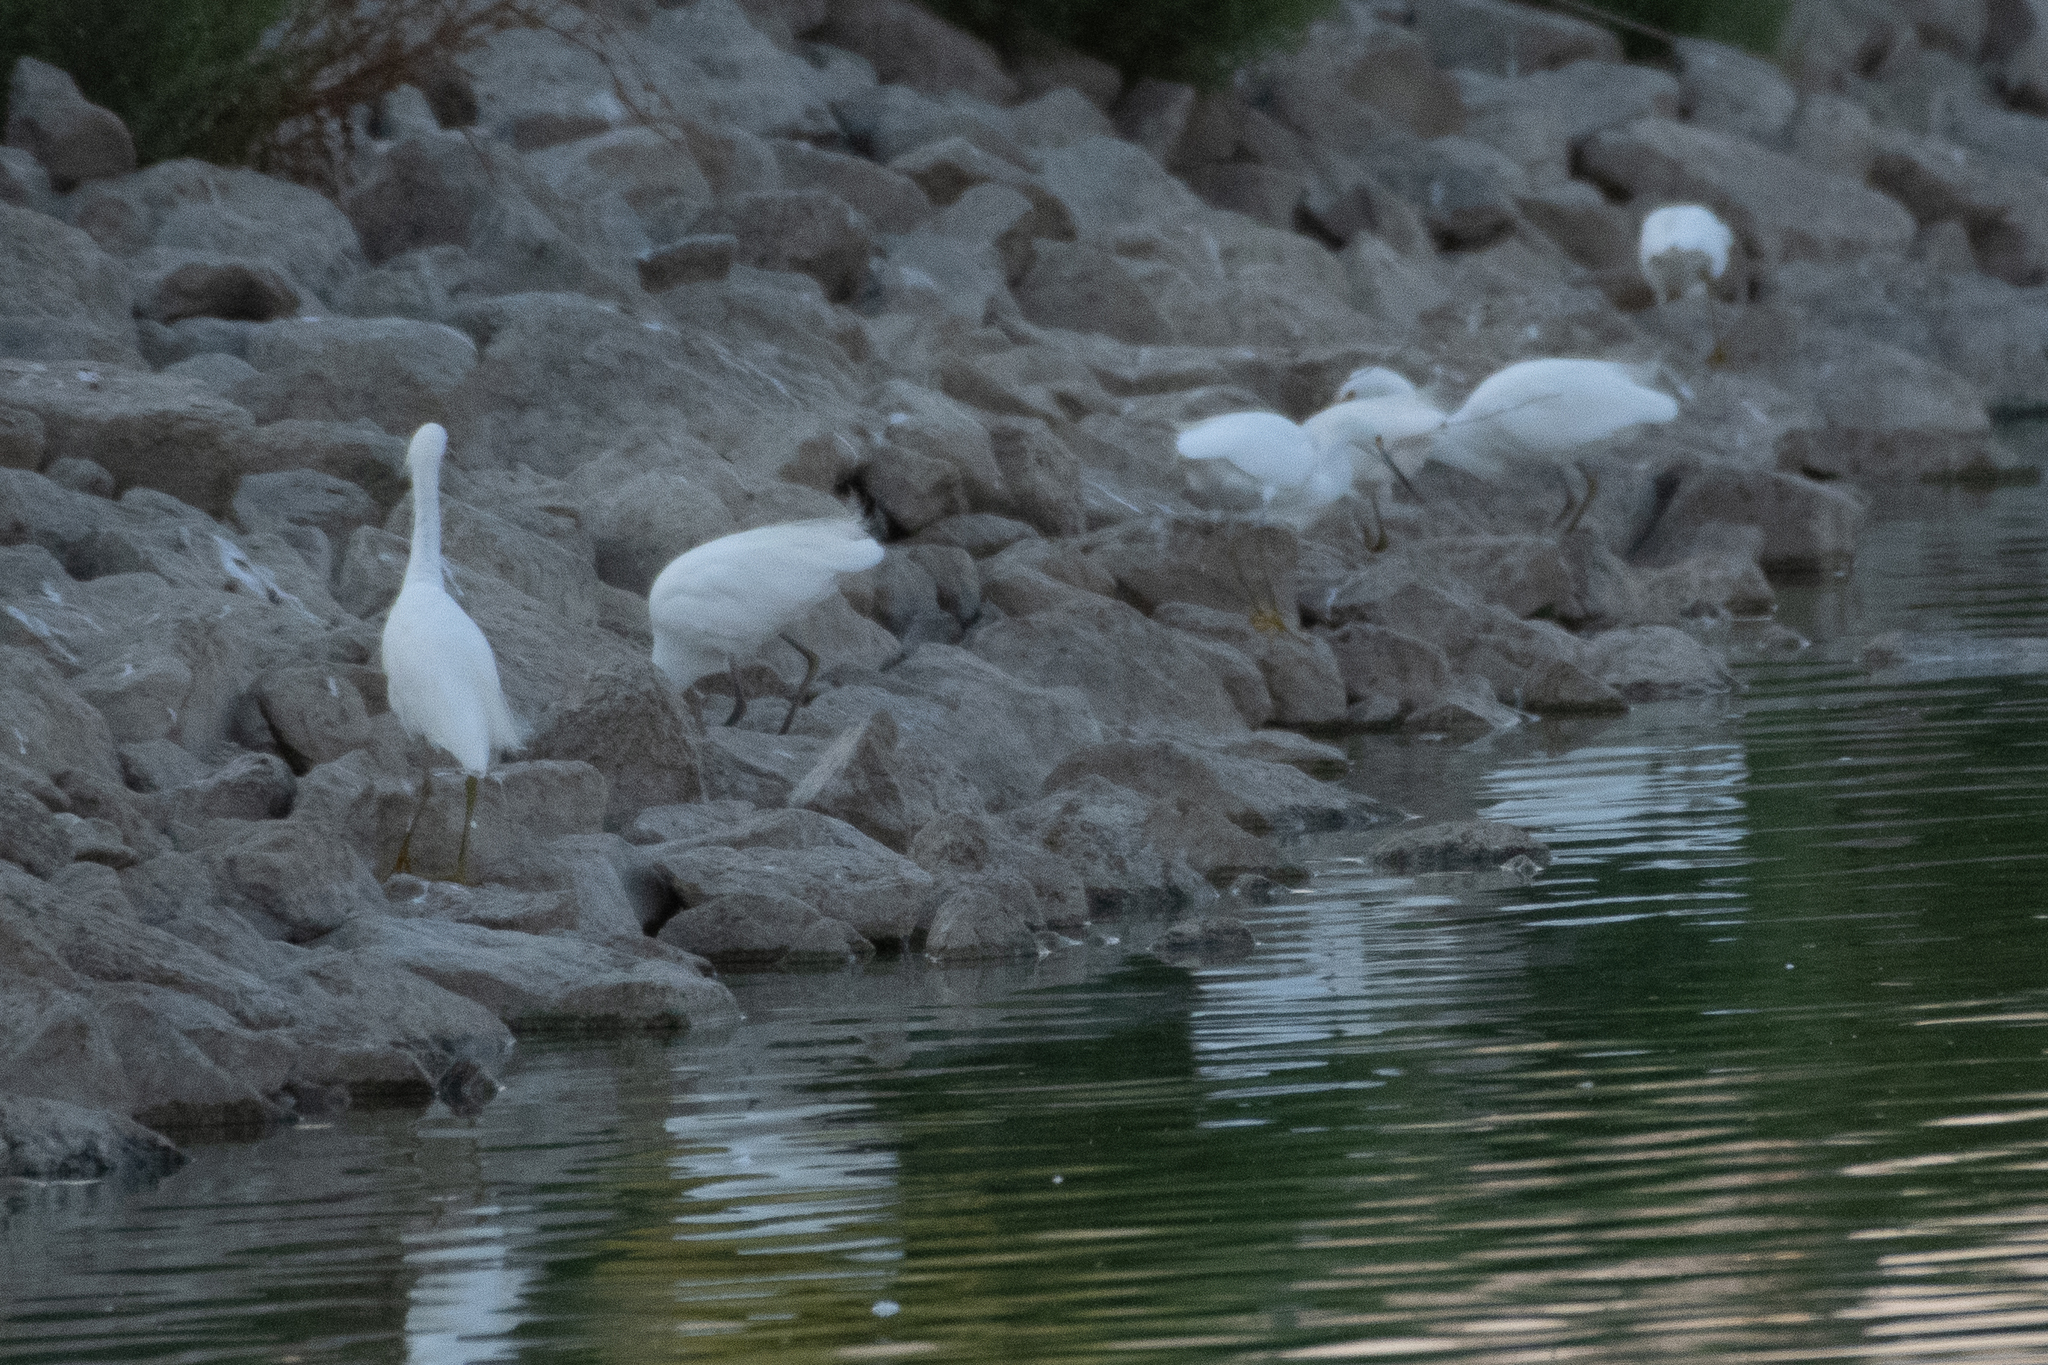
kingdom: Animalia
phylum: Chordata
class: Aves
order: Pelecaniformes
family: Ardeidae
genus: Egretta
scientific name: Egretta thula
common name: Snowy egret
